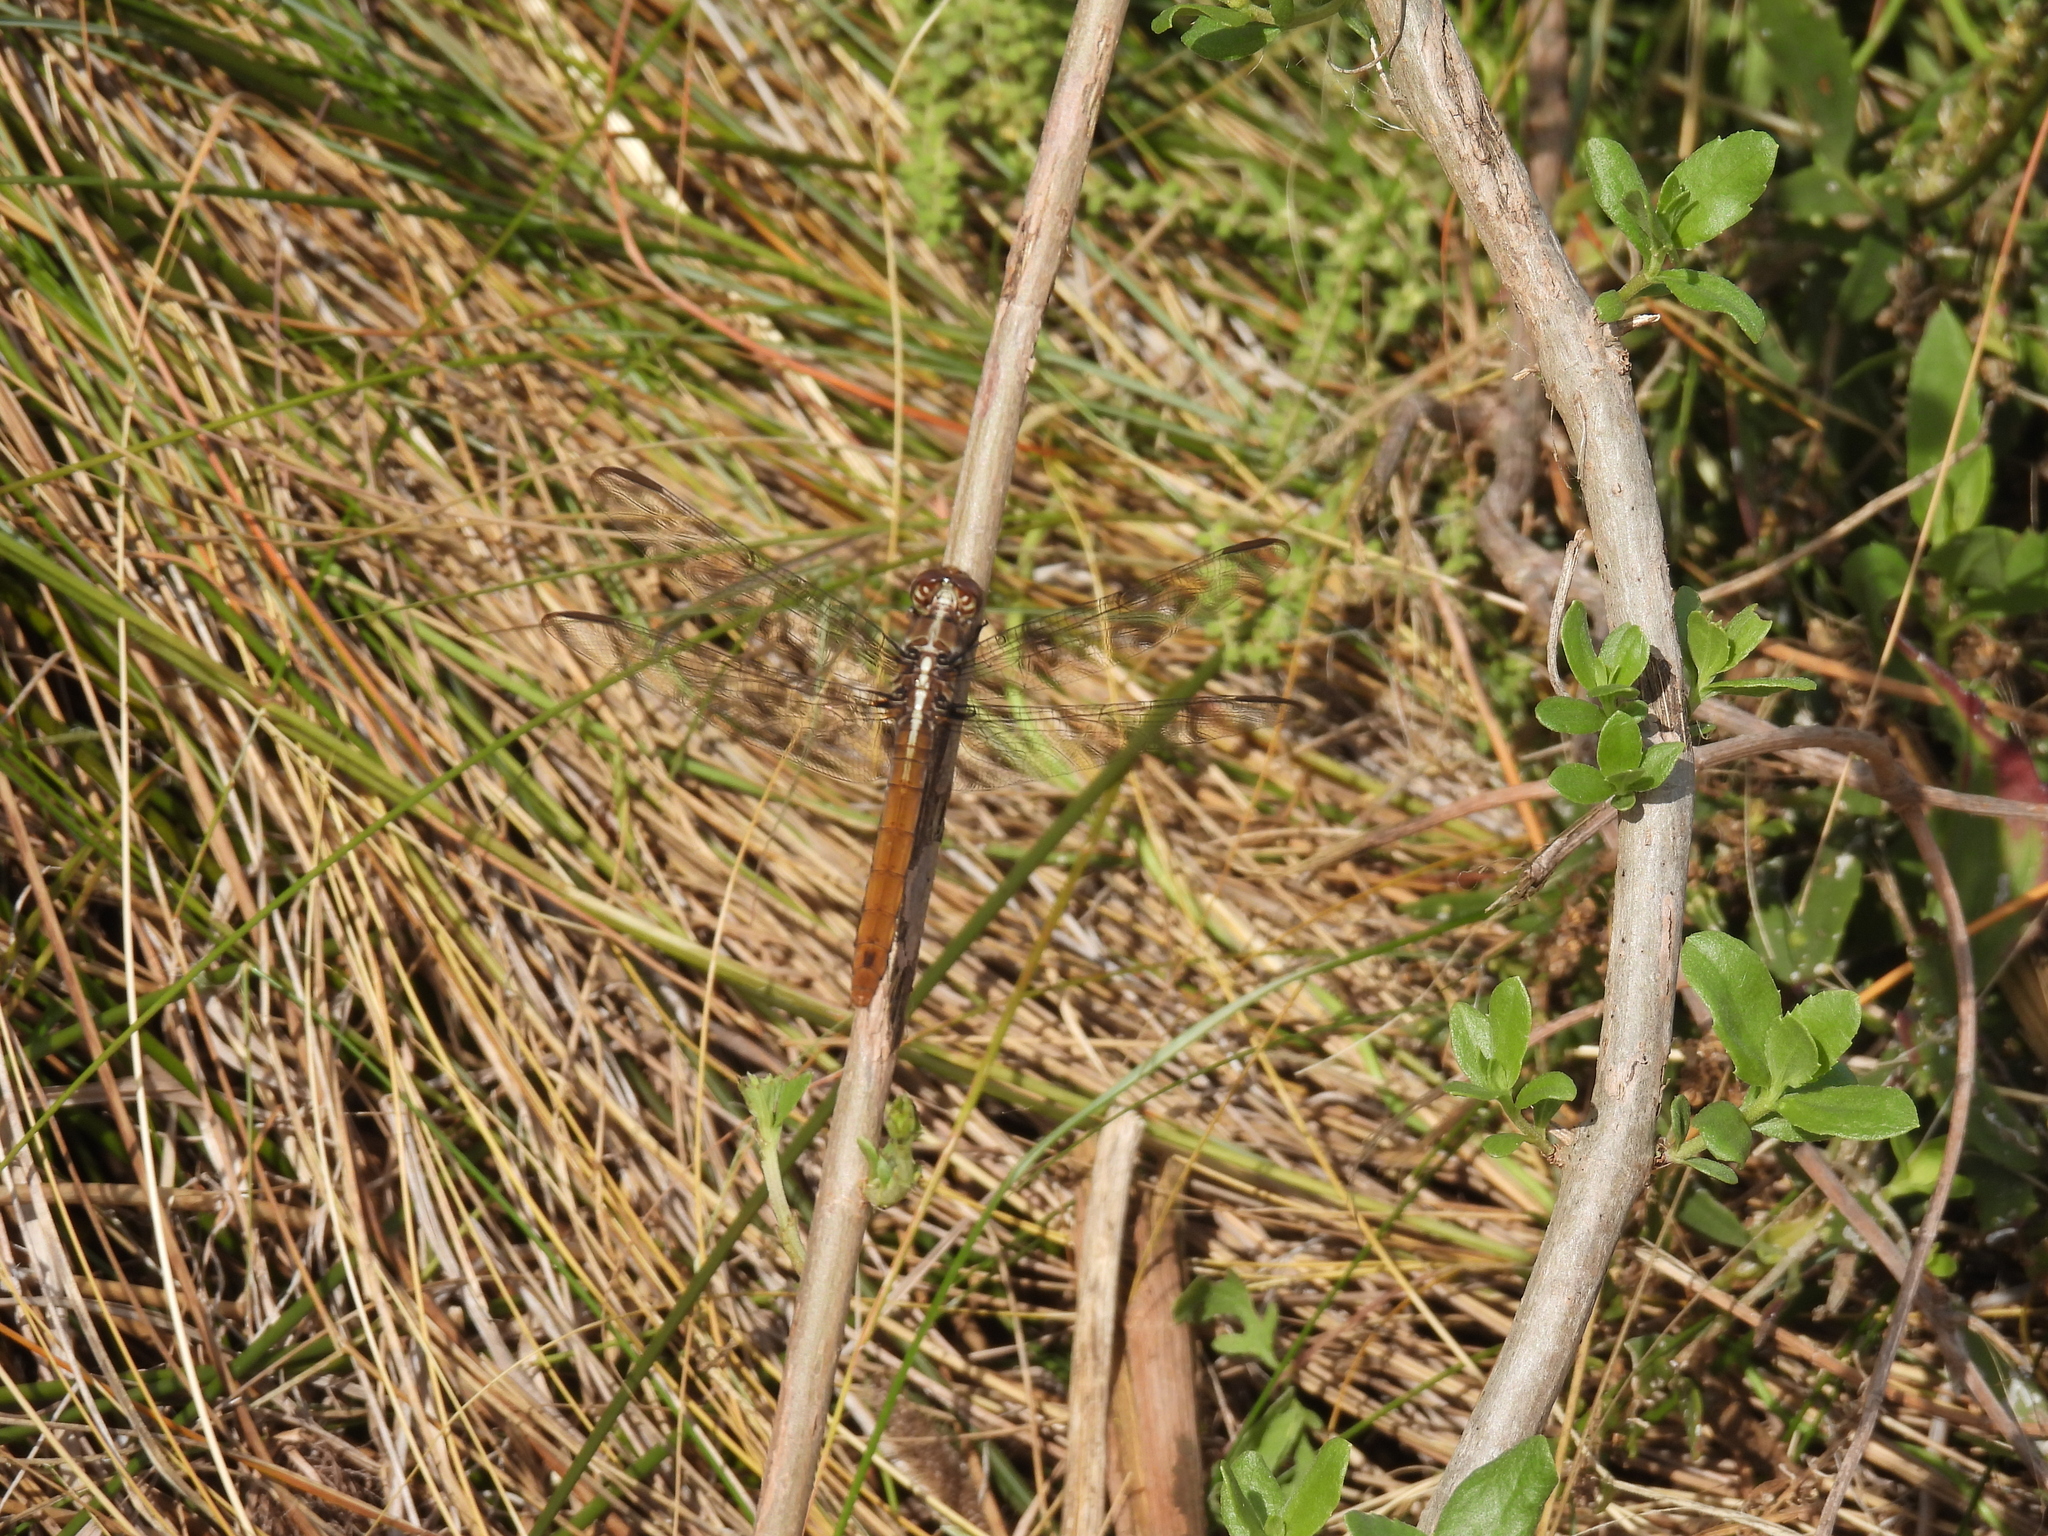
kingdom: Animalia
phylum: Arthropoda
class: Insecta
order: Odonata
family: Libellulidae
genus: Orthemis
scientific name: Orthemis ferruginea
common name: Roseate skimmer
